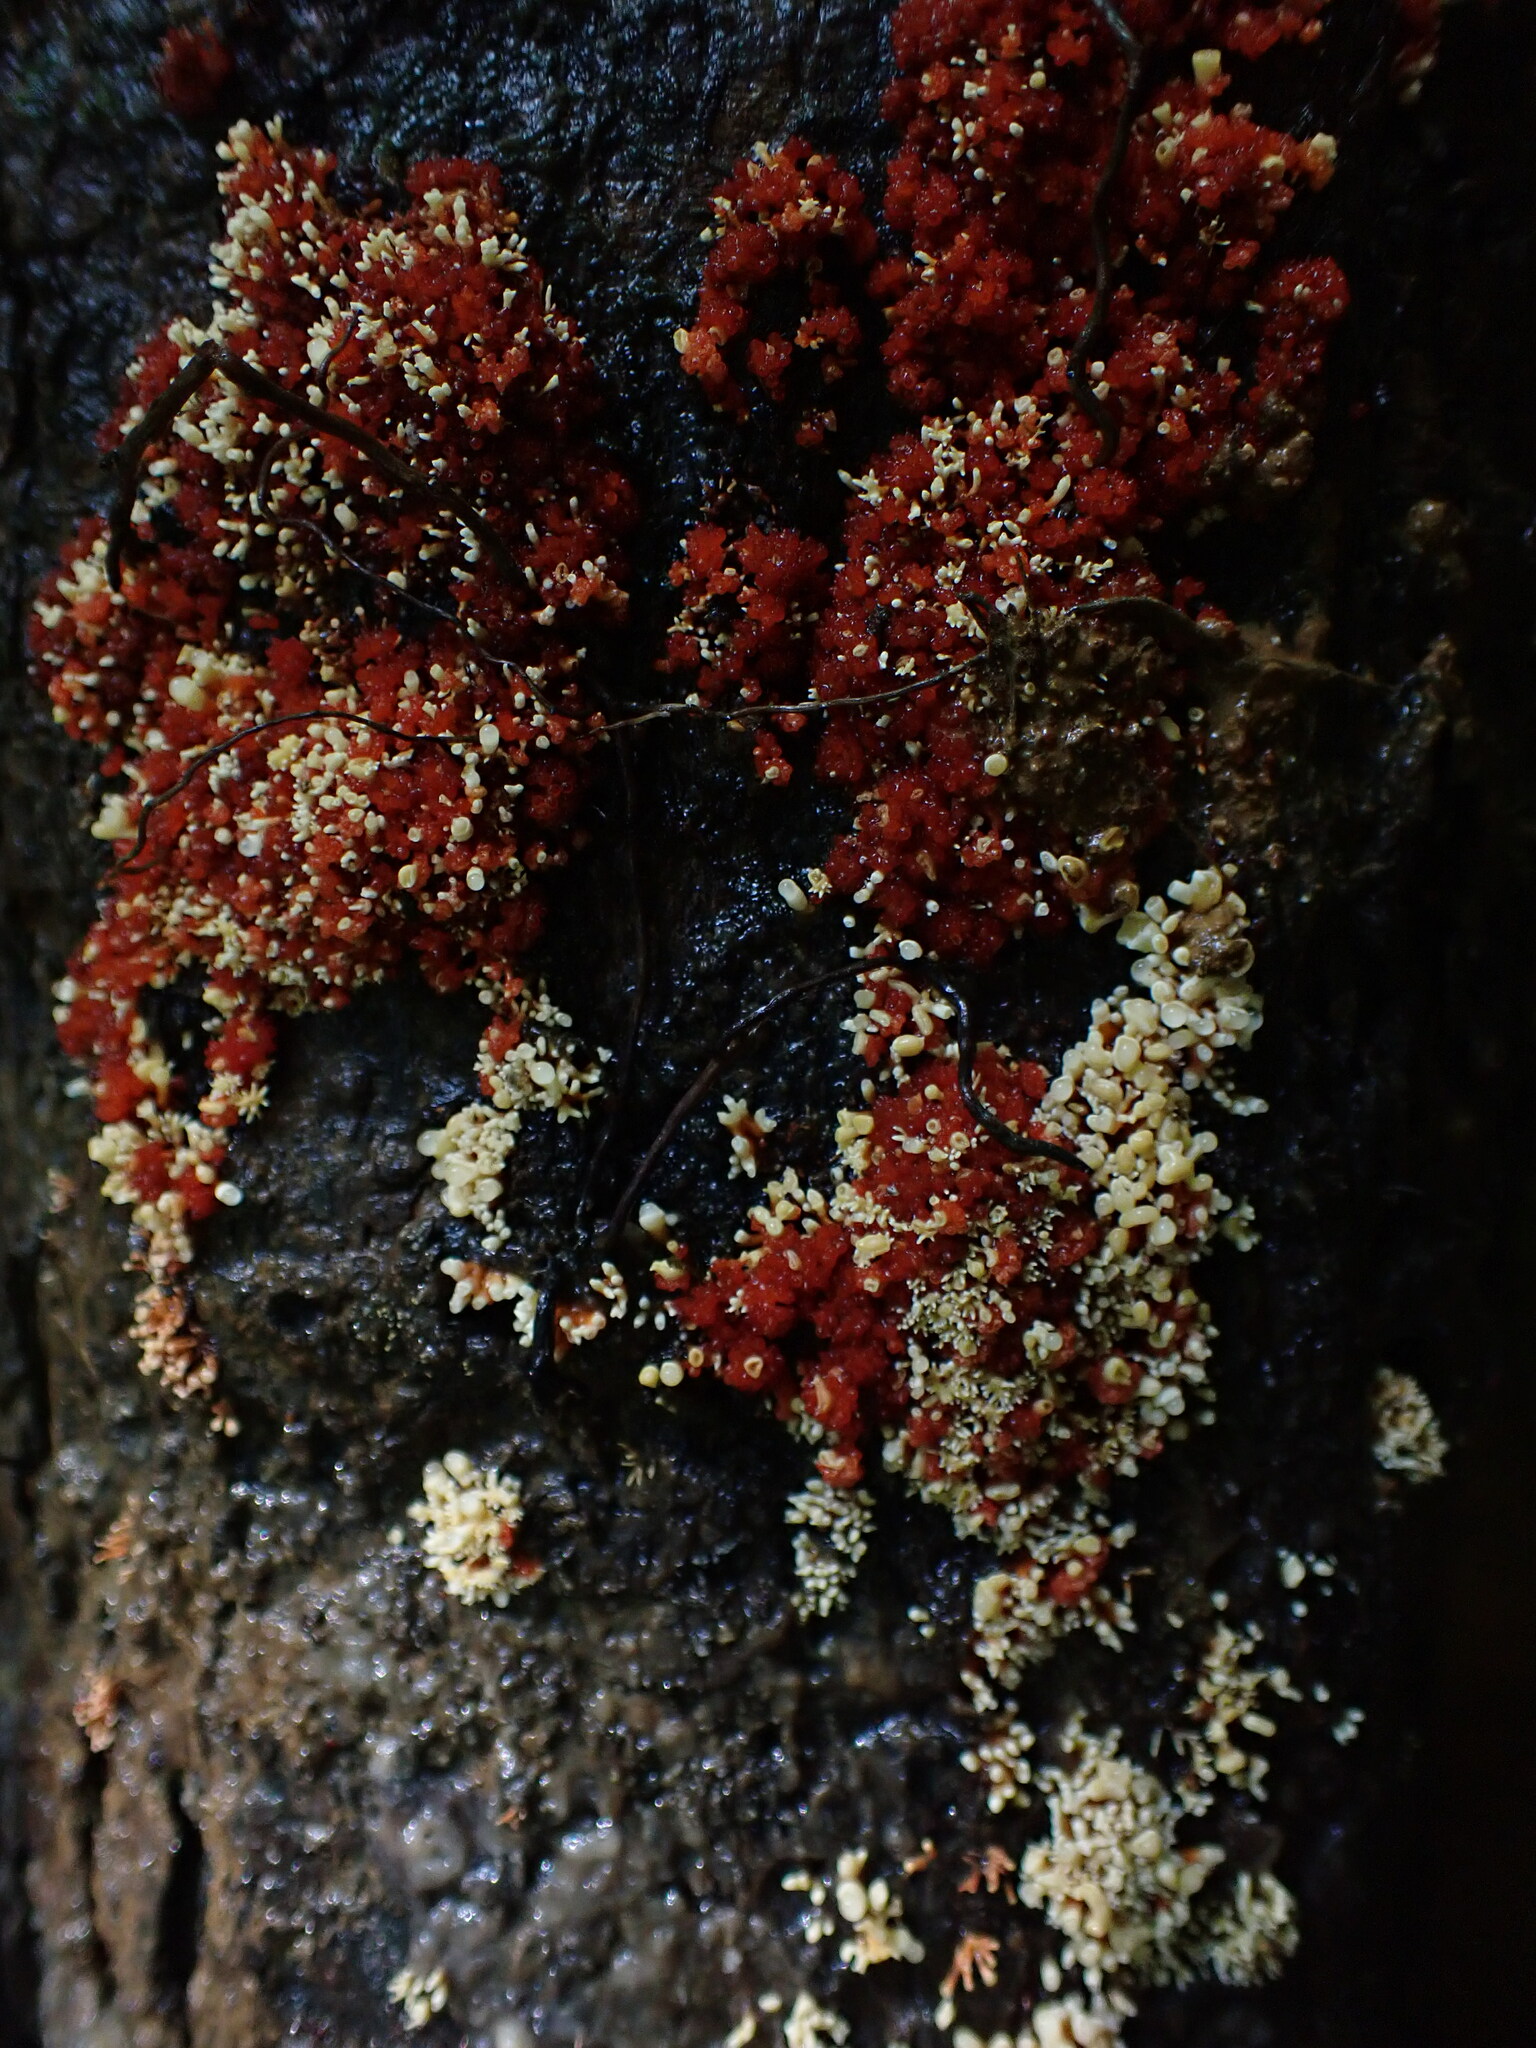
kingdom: Fungi
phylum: Ascomycota
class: Sordariomycetes
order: Hypocreales
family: Nectriaceae
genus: Corallonectria
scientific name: Corallonectria jatrophae
